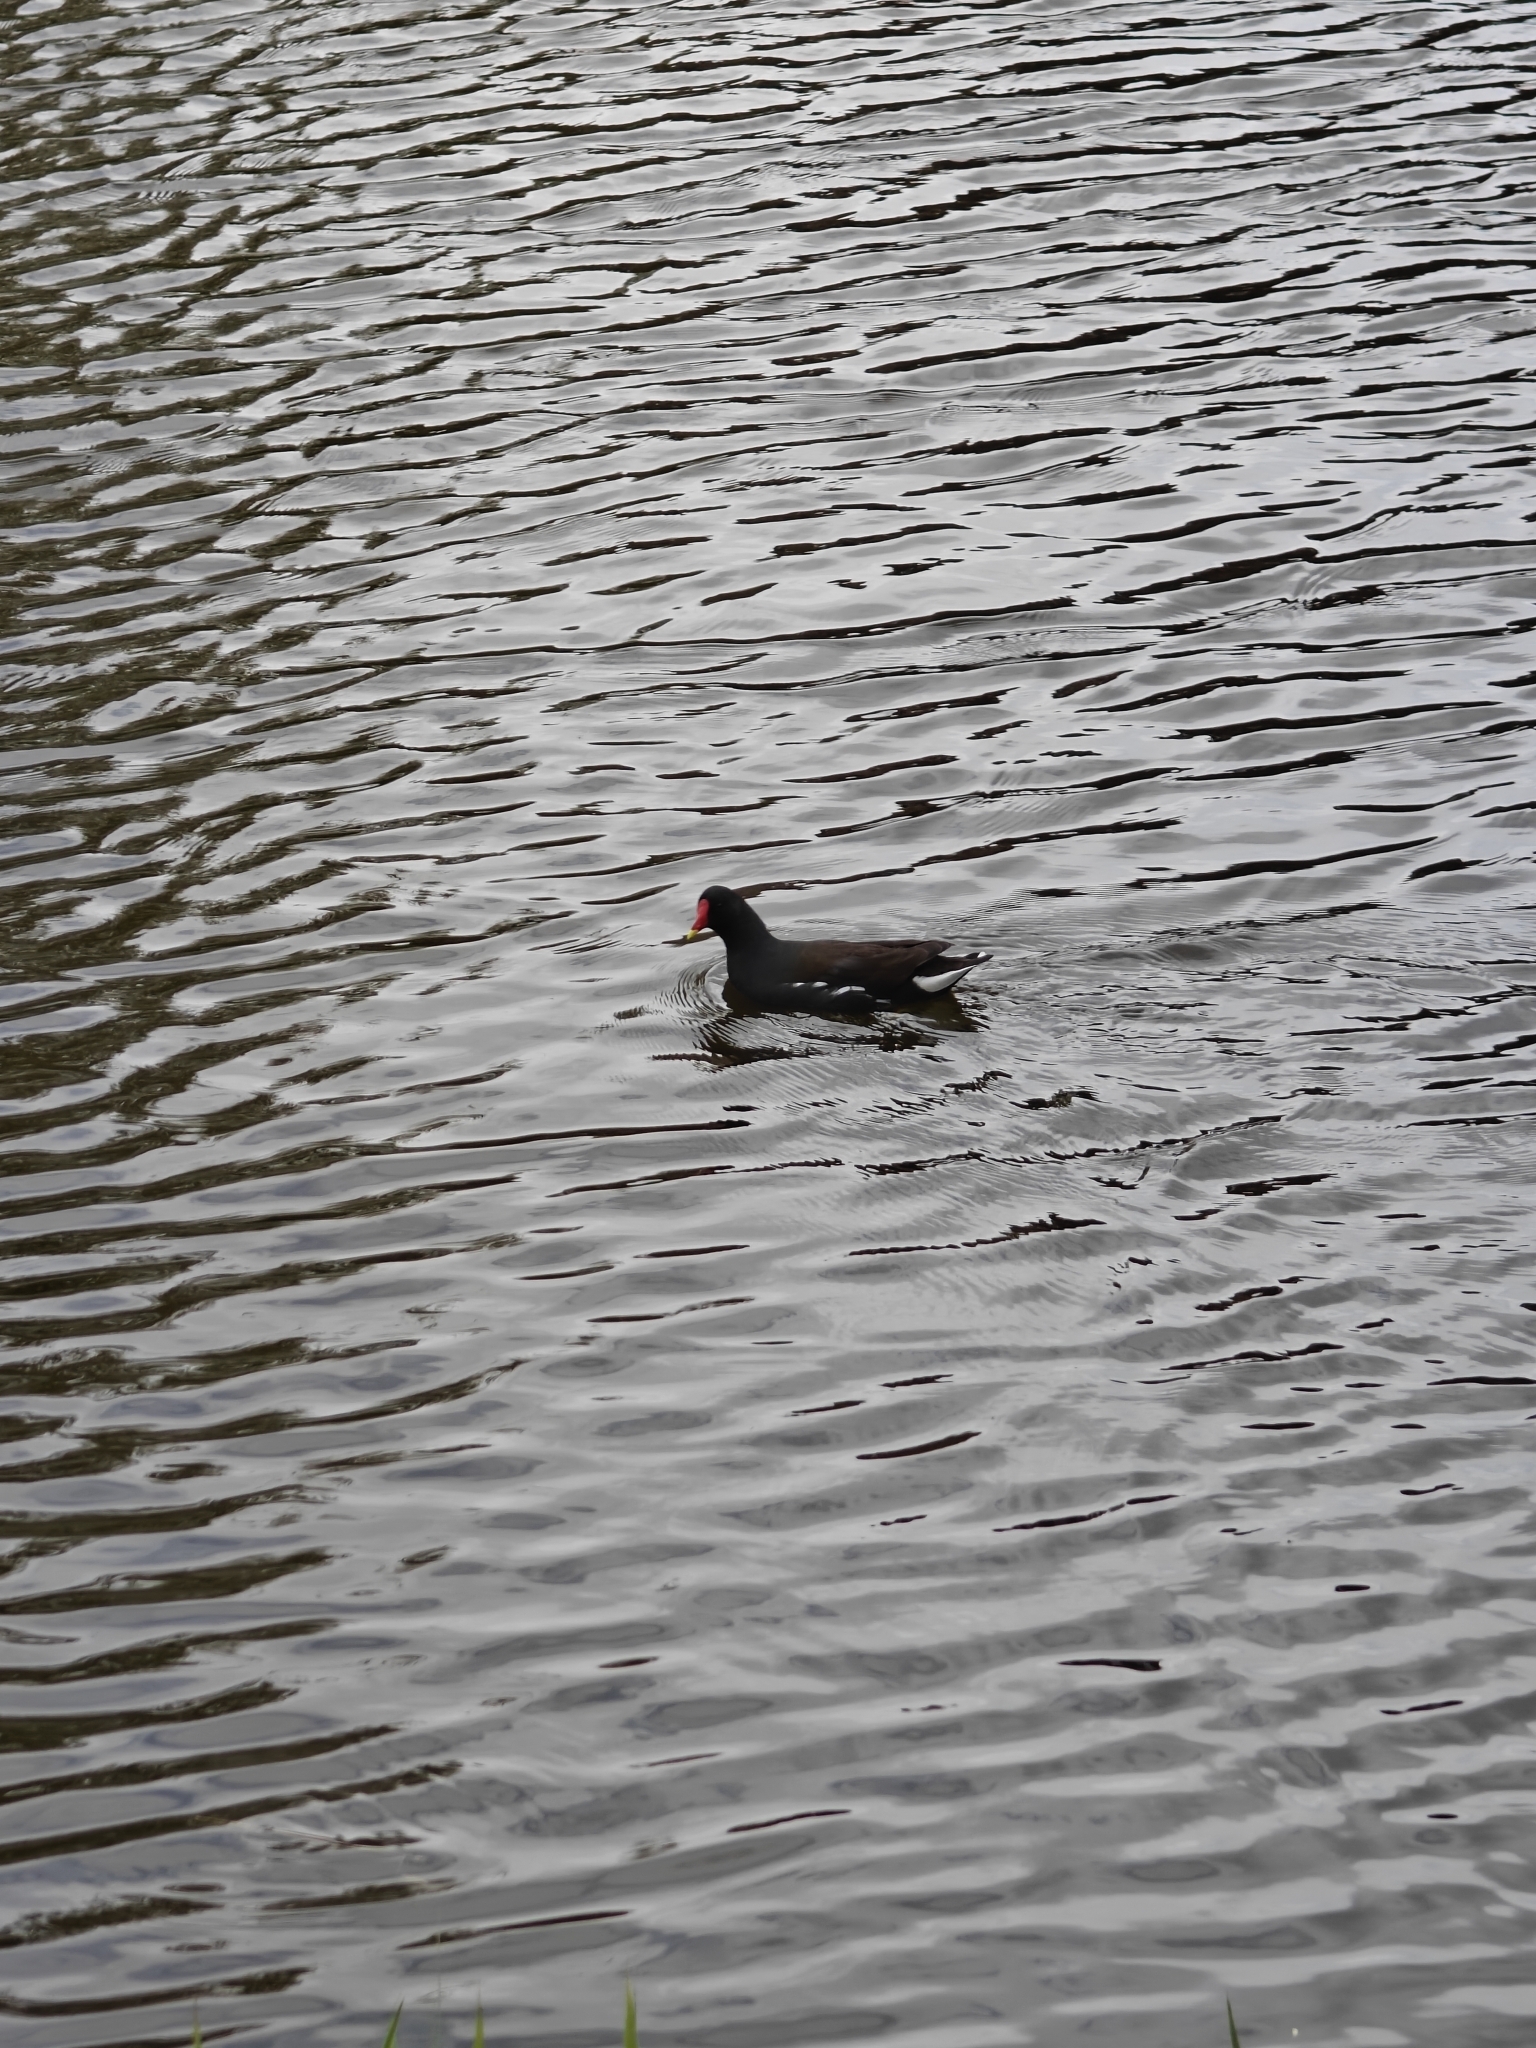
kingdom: Animalia
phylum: Chordata
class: Aves
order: Gruiformes
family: Rallidae
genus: Gallinula
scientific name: Gallinula chloropus
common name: Common moorhen
